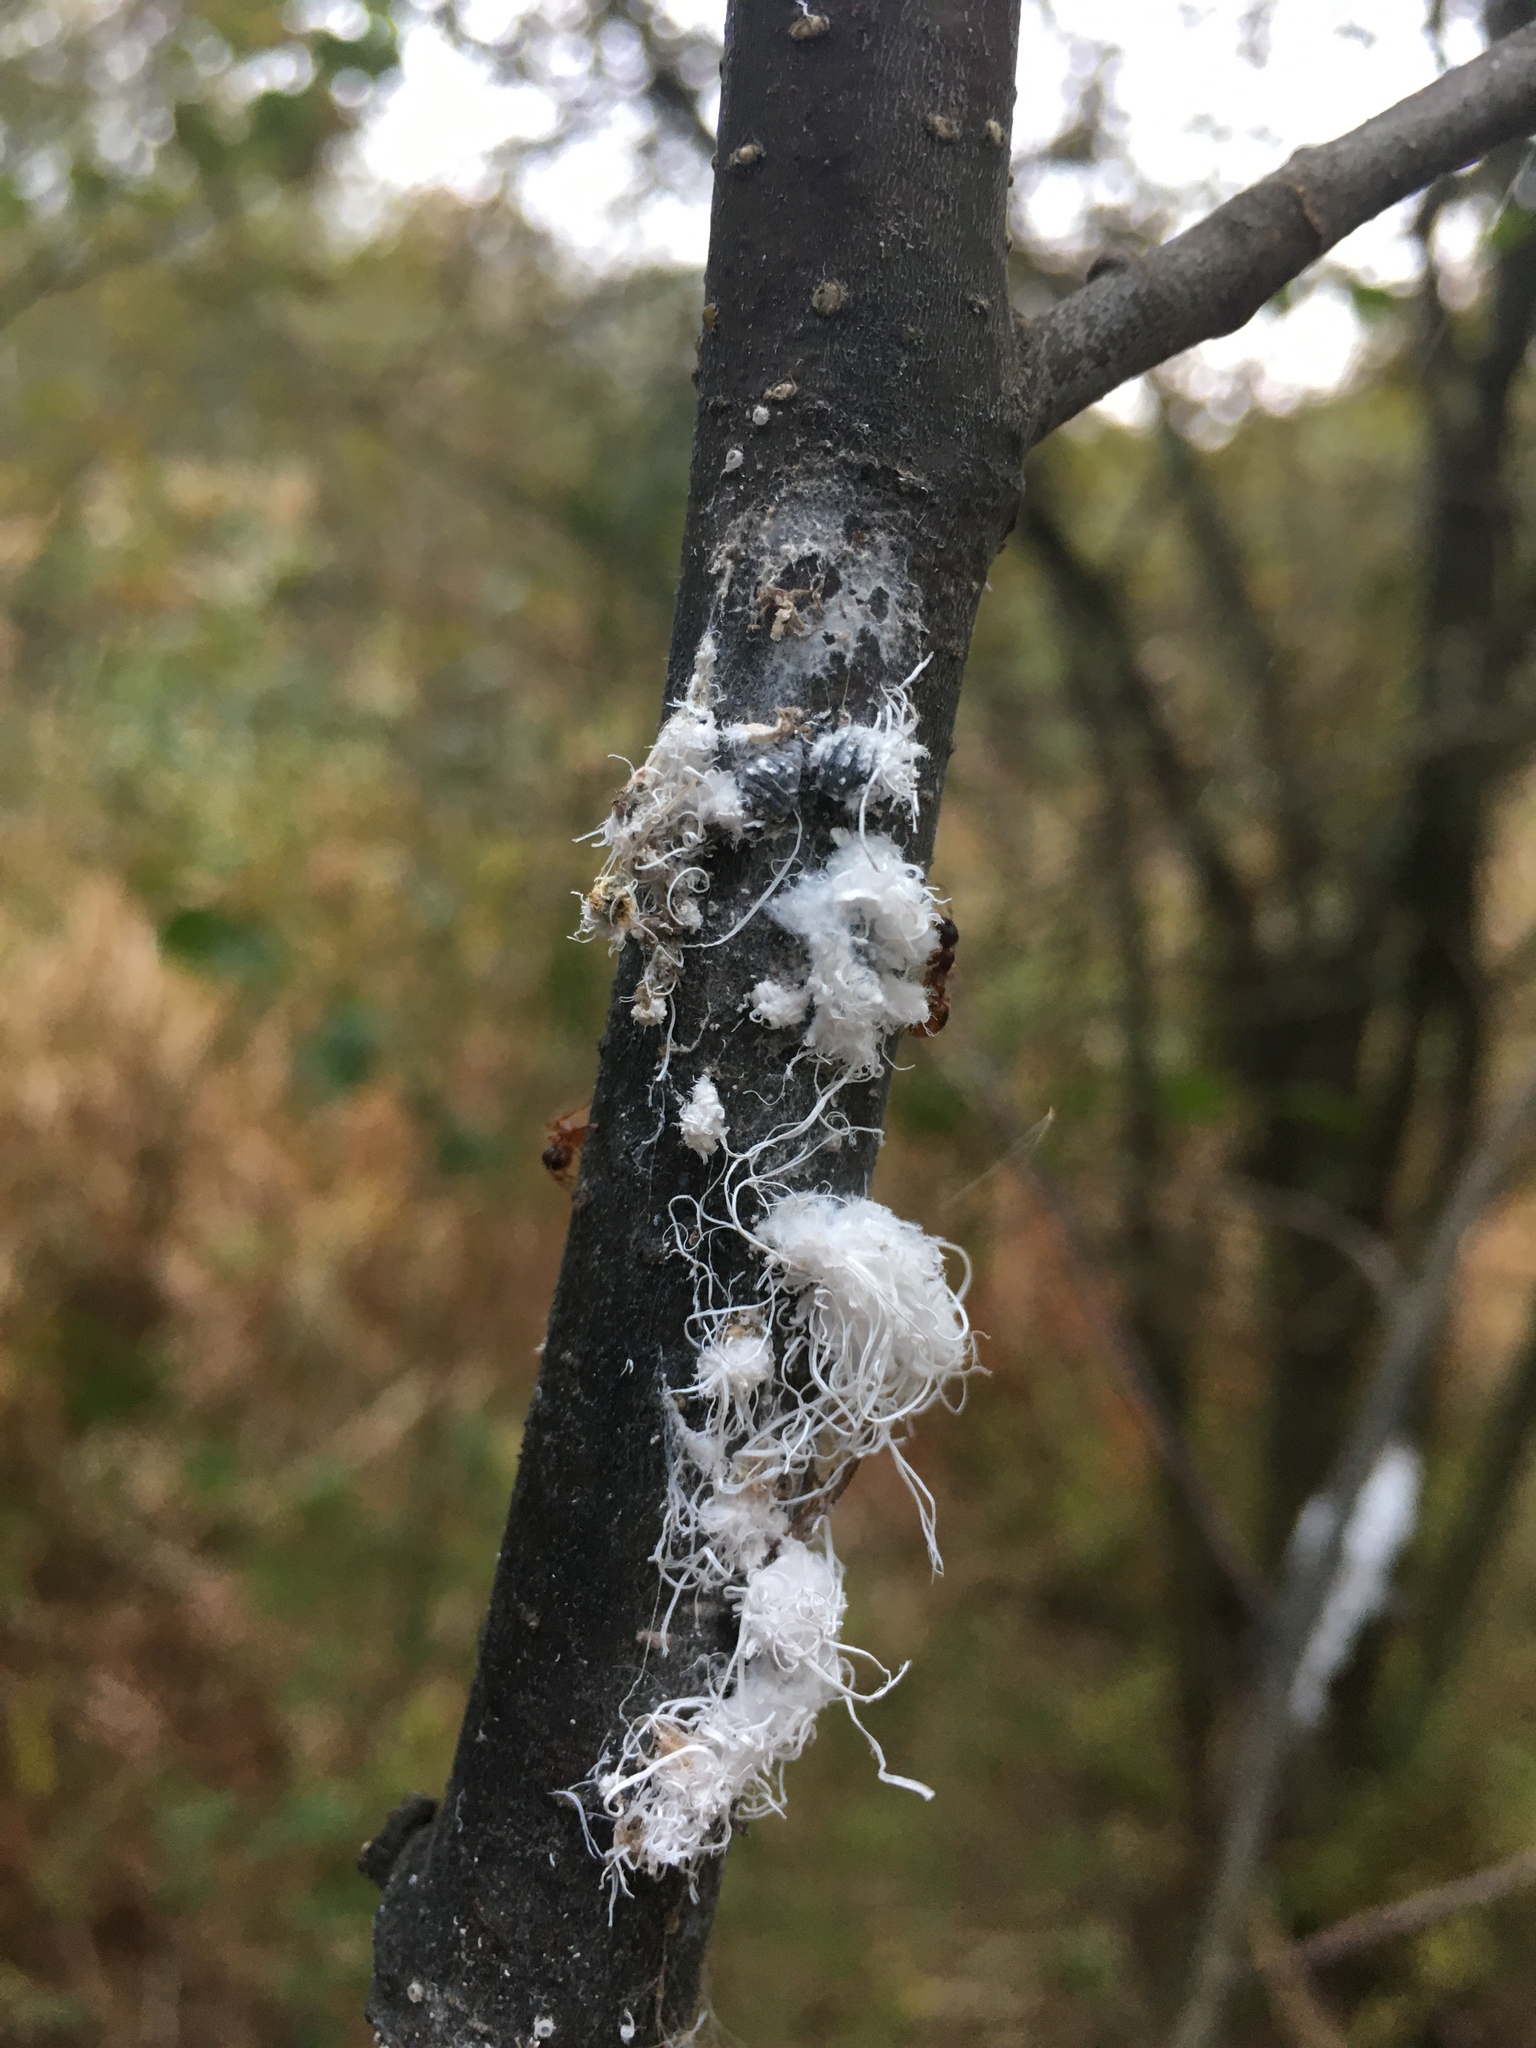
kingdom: Animalia
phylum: Arthropoda
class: Insecta
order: Hemiptera
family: Aphididae
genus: Prociphilus
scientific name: Prociphilus tessellatus
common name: Woolly alder aphid
